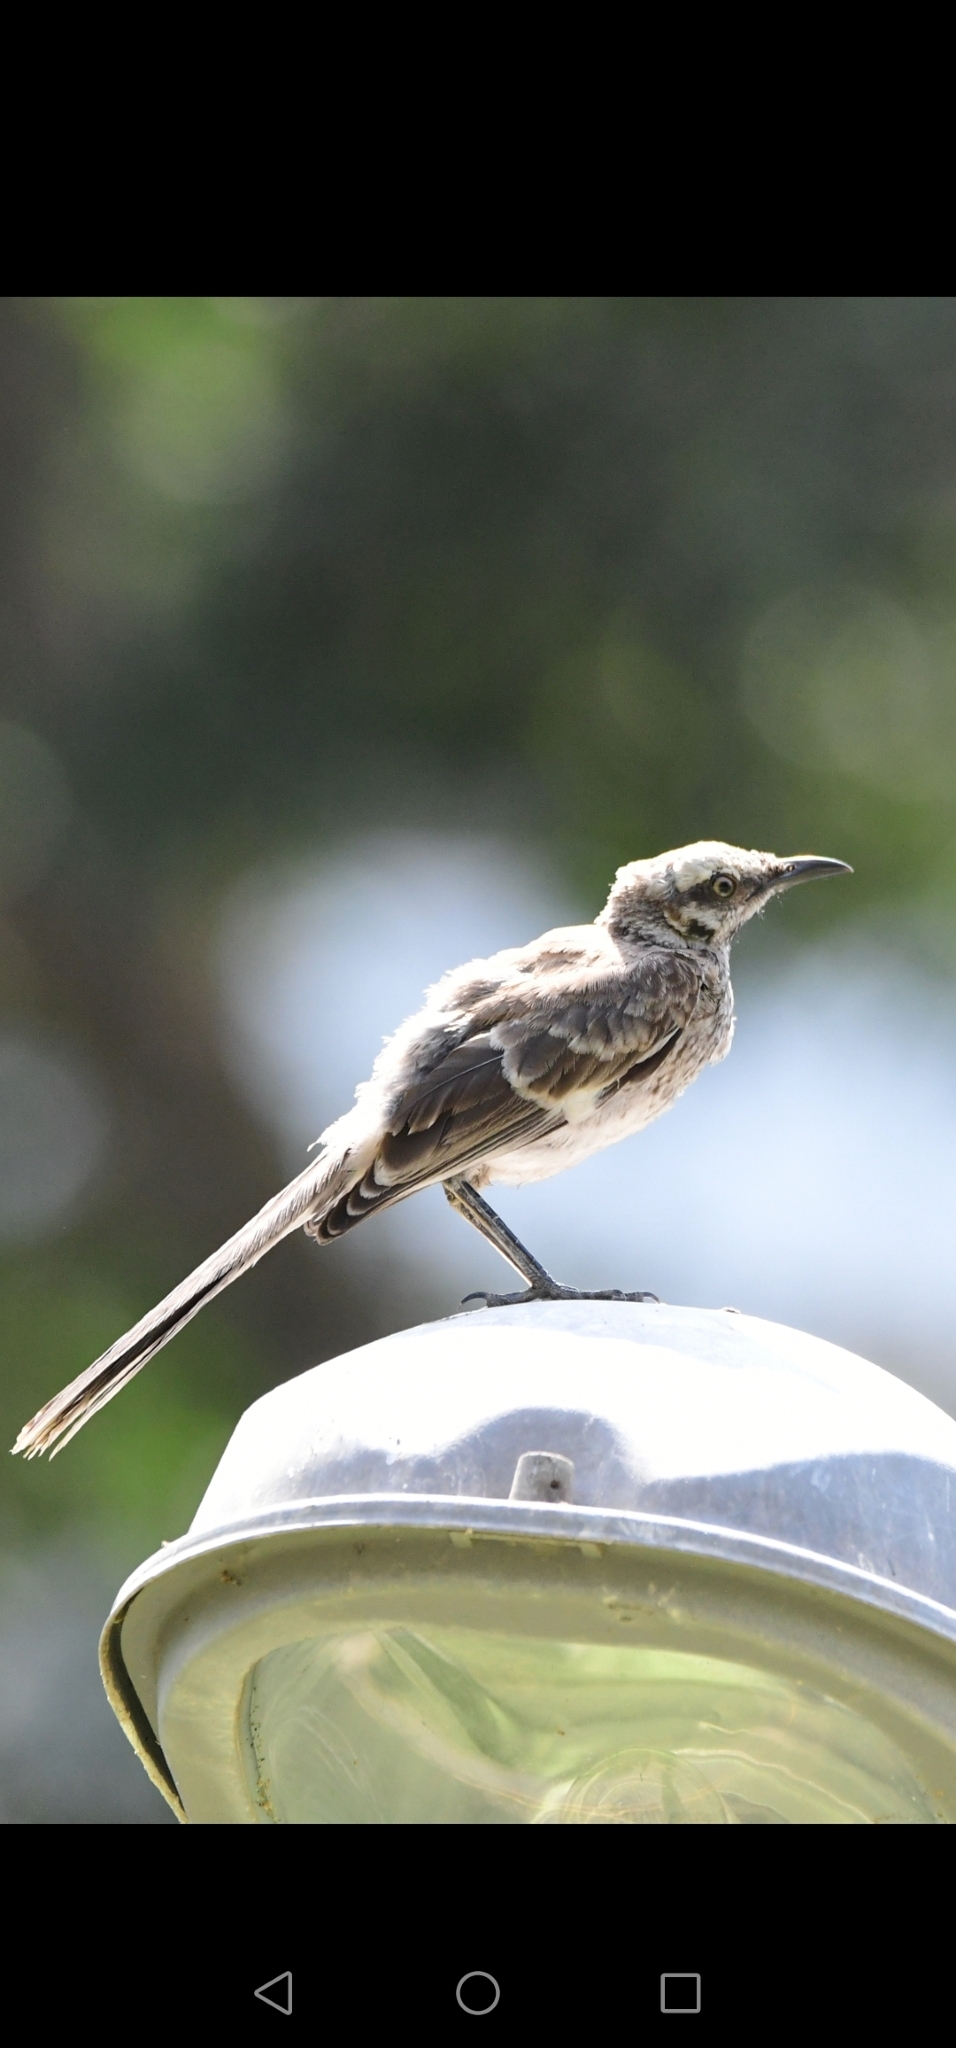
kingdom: Animalia
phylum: Chordata
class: Aves
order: Passeriformes
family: Mimidae
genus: Mimus
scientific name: Mimus longicaudatus
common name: Long-tailed mockingbird
